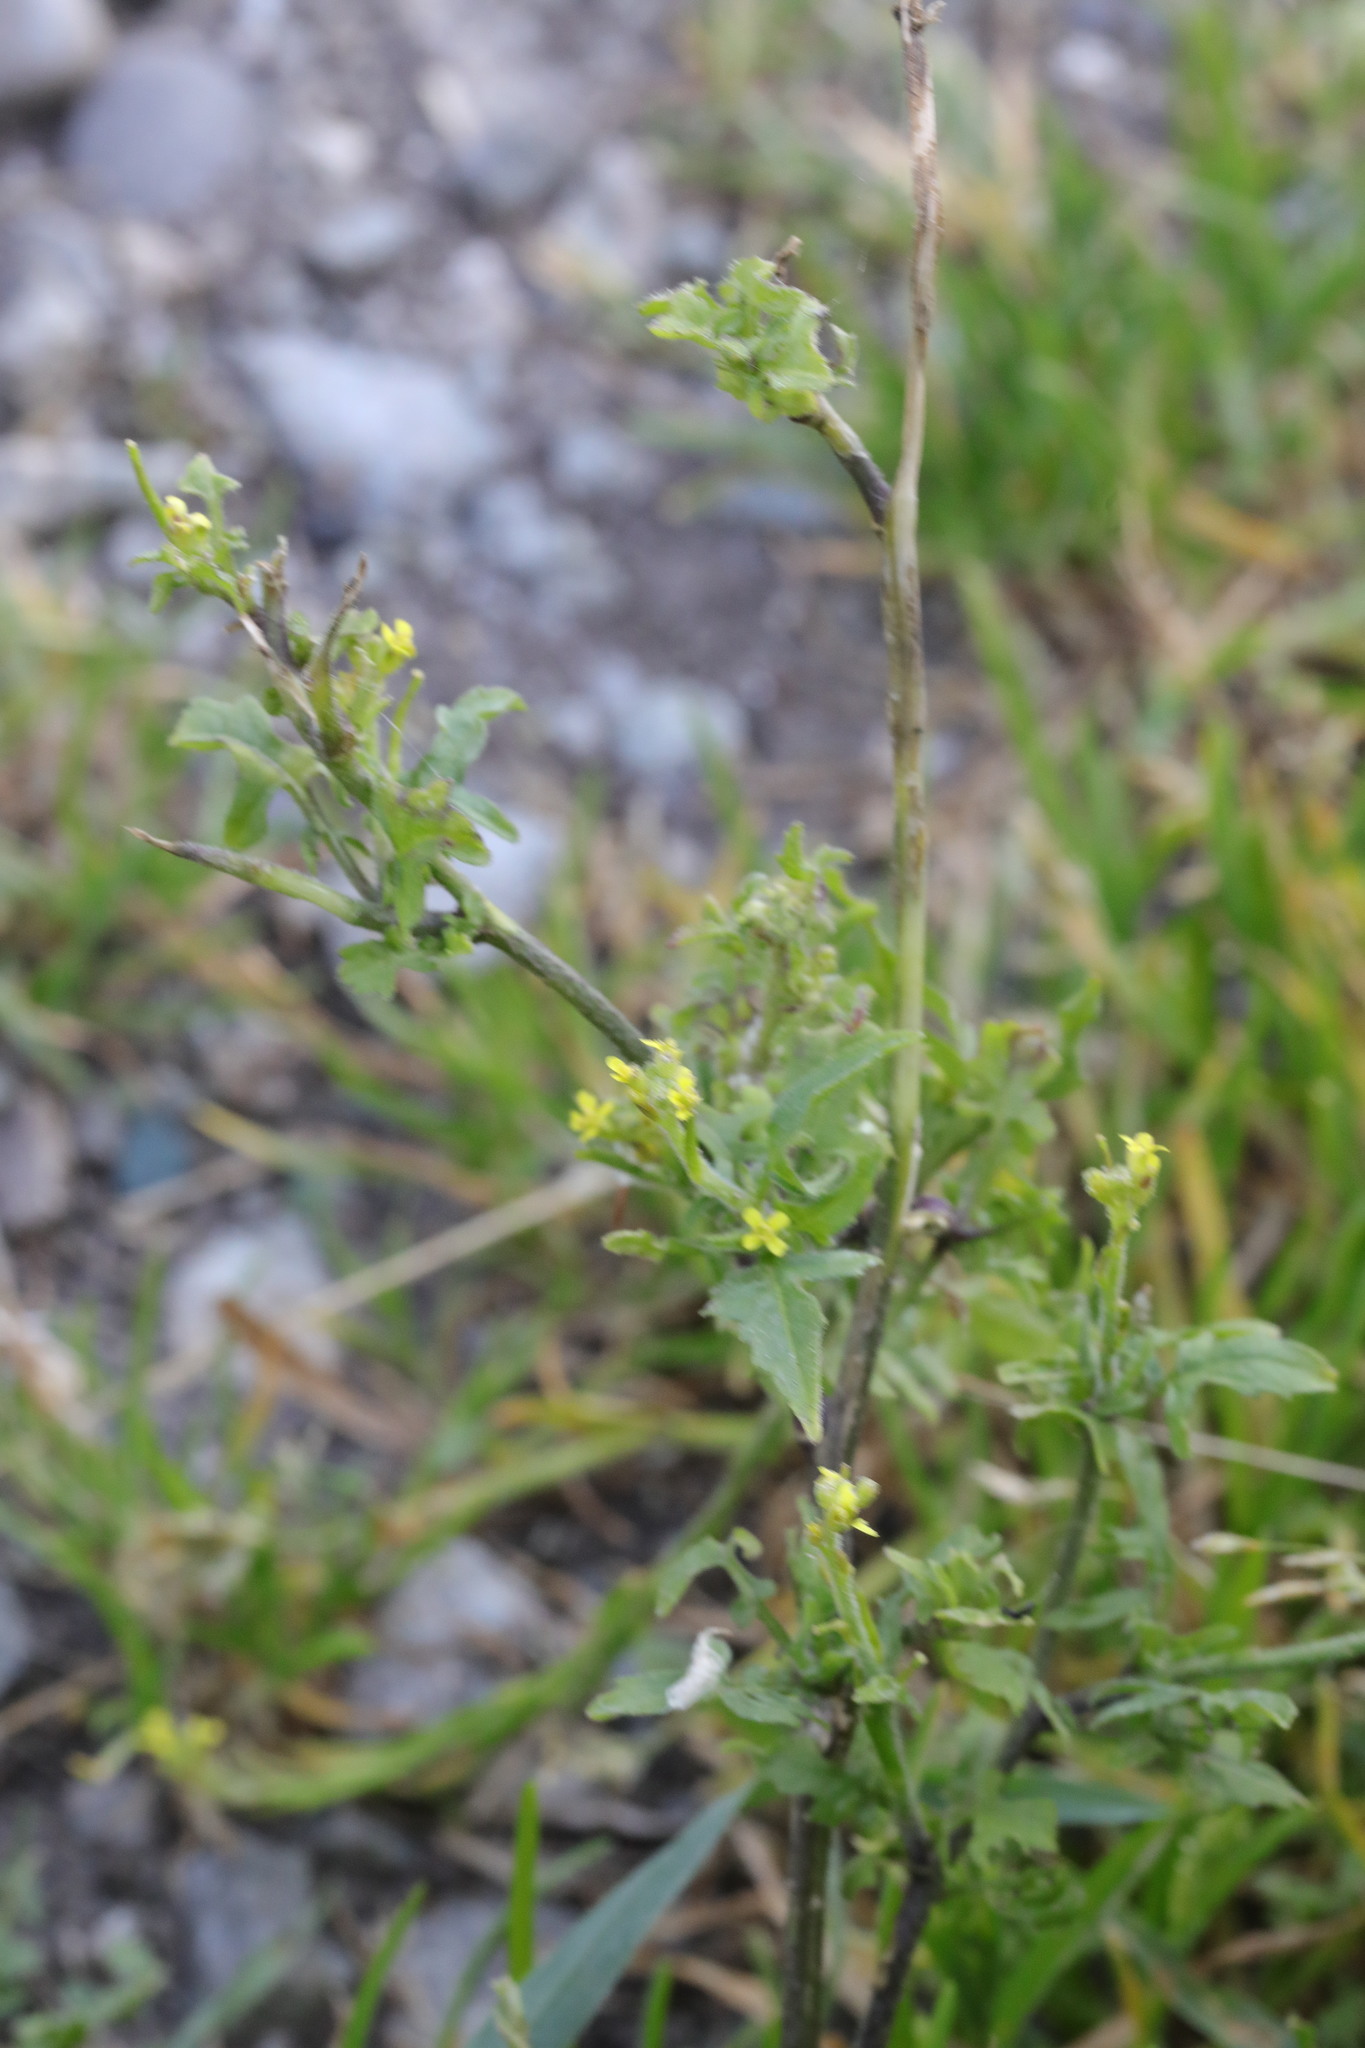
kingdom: Plantae
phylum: Tracheophyta
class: Magnoliopsida
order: Brassicales
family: Brassicaceae
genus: Sisymbrium
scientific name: Sisymbrium officinale
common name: Hedge mustard
